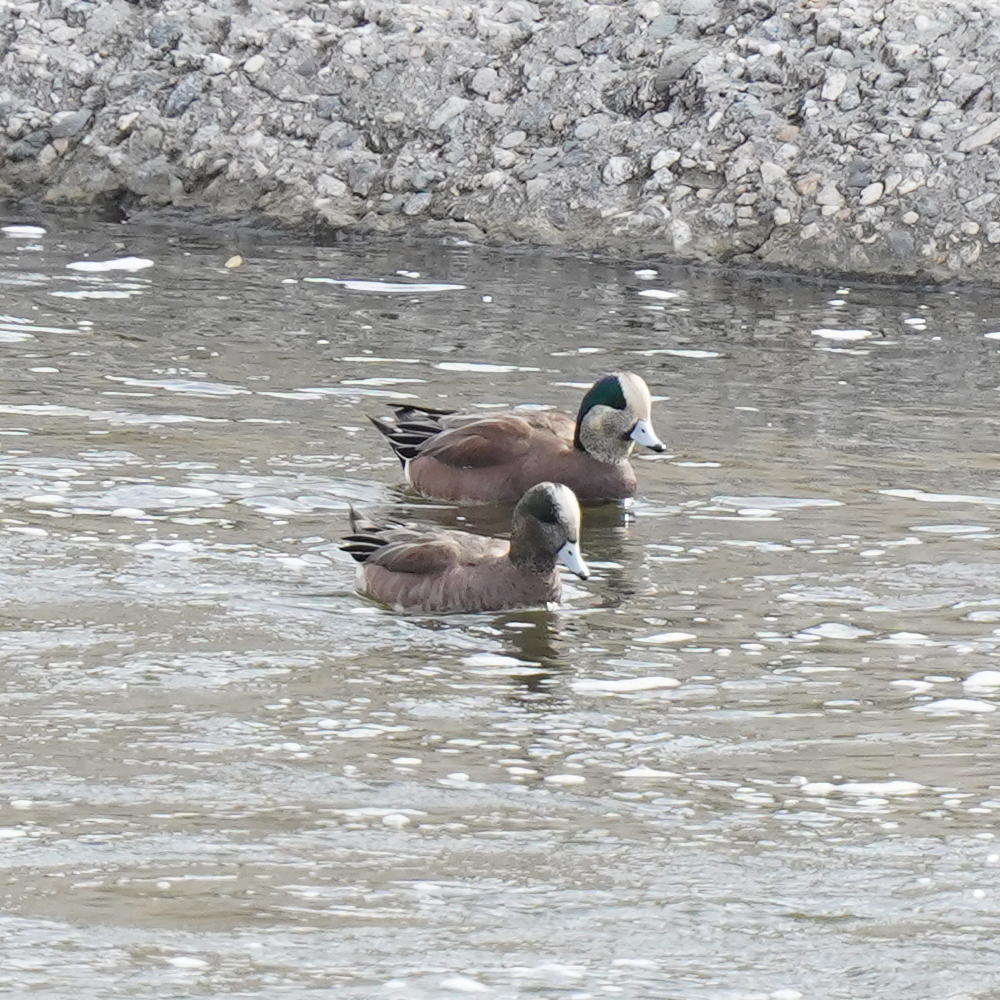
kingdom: Animalia
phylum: Chordata
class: Aves
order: Anseriformes
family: Anatidae
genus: Mareca
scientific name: Mareca americana
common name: American wigeon
